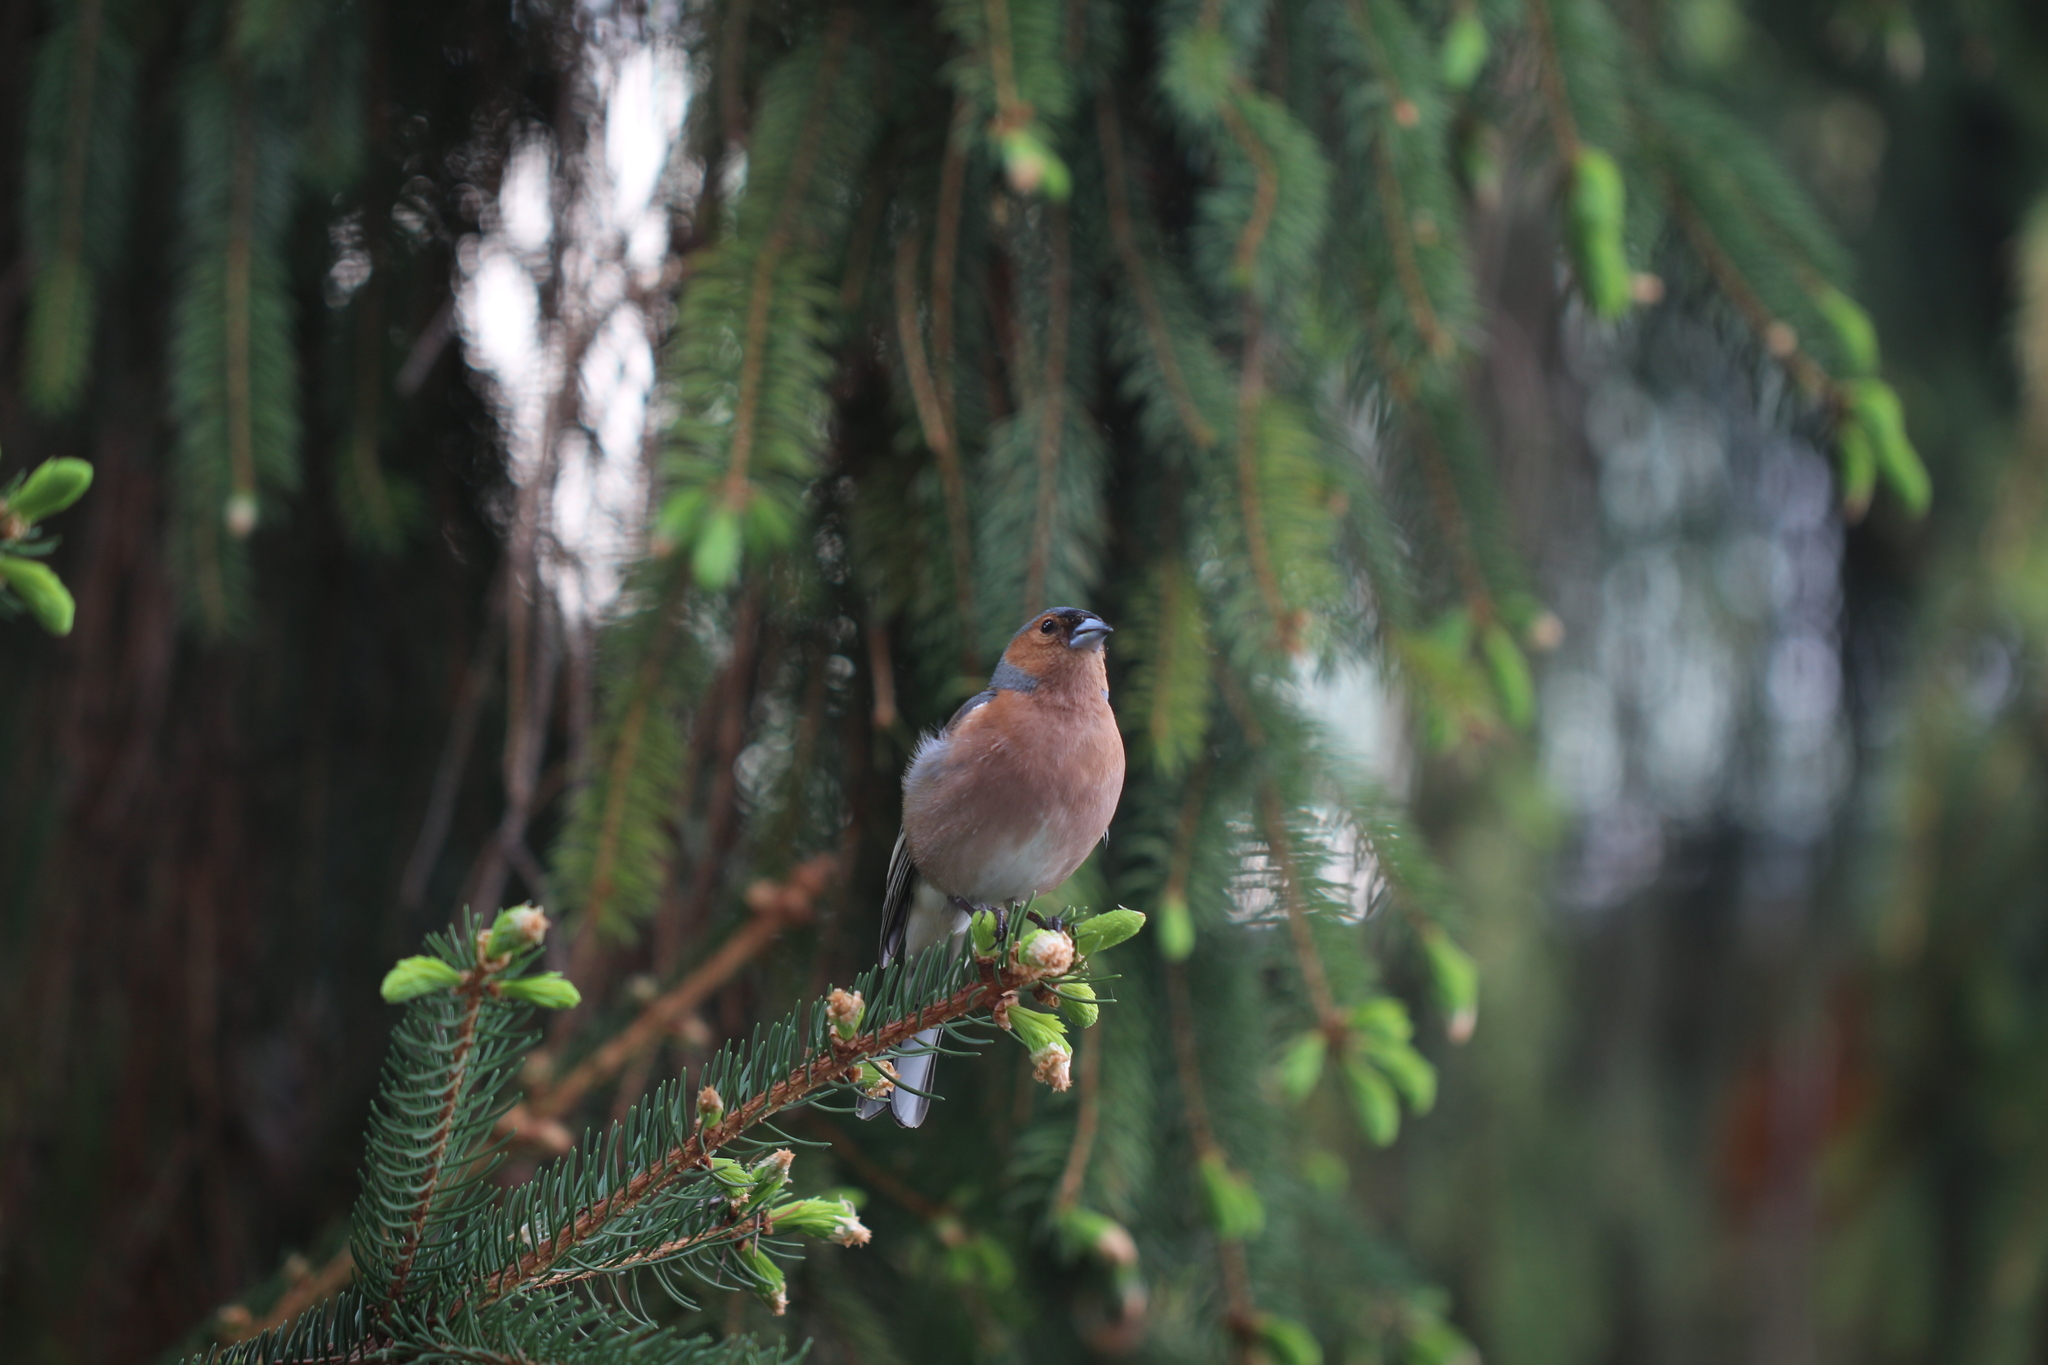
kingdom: Animalia
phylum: Chordata
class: Aves
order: Passeriformes
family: Fringillidae
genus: Fringilla
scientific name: Fringilla coelebs
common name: Common chaffinch
